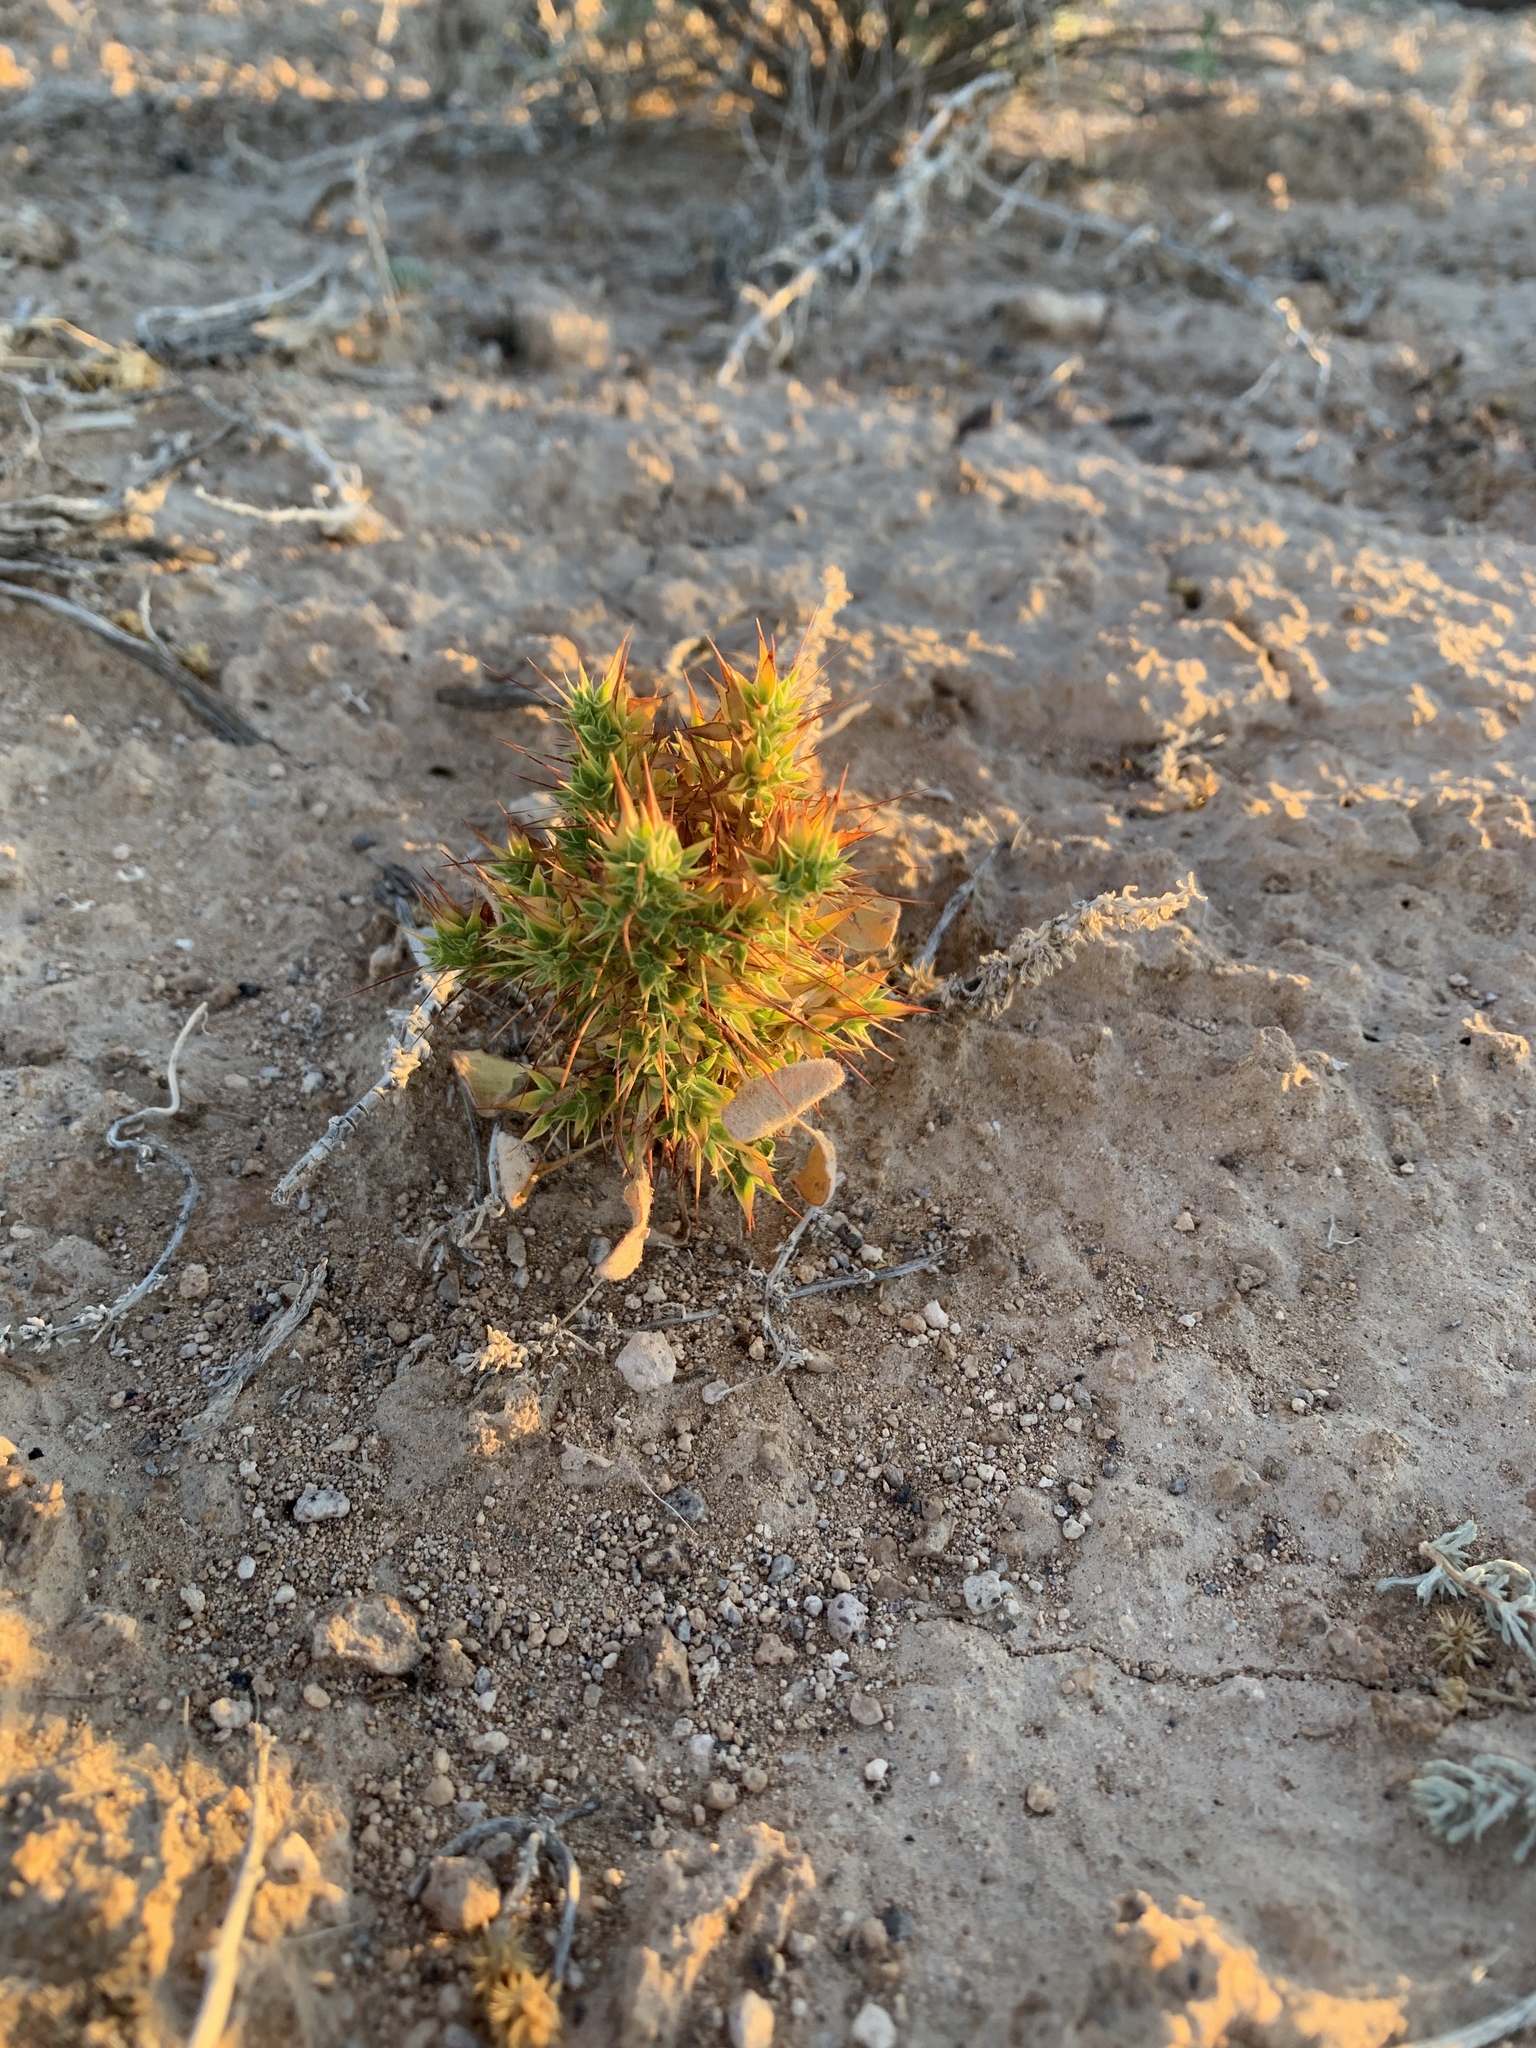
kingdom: Plantae
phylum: Tracheophyta
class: Magnoliopsida
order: Caryophyllales
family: Polygonaceae
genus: Chorizanthe
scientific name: Chorizanthe rigida
